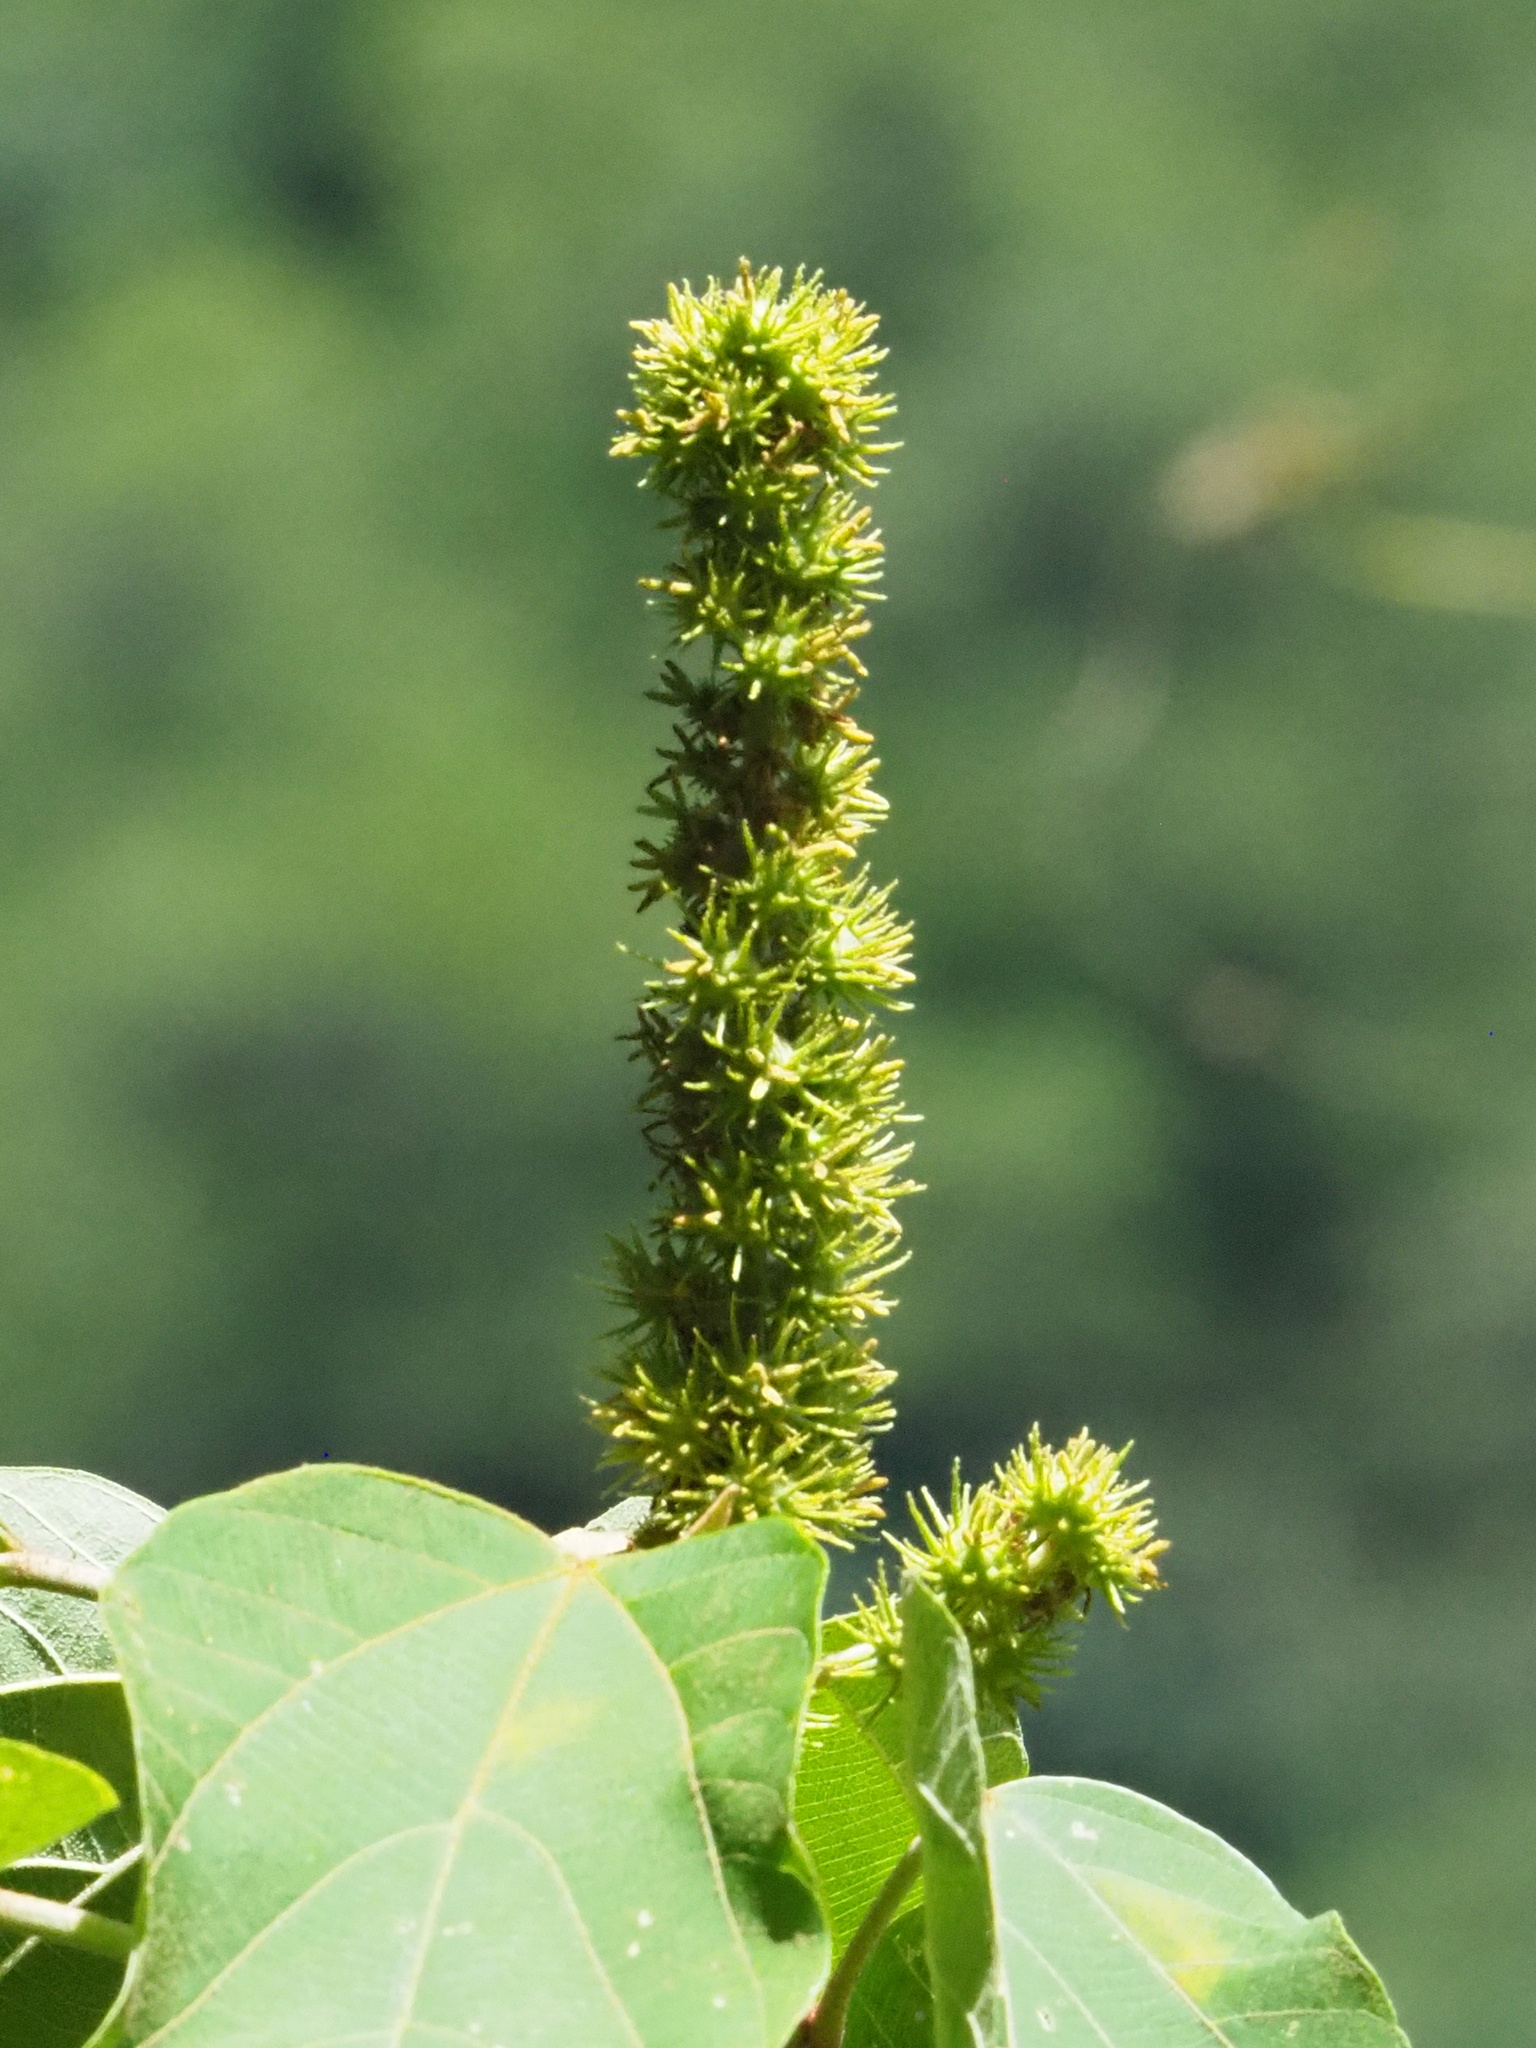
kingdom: Plantae
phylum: Tracheophyta
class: Magnoliopsida
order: Malpighiales
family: Euphorbiaceae
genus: Mallotus
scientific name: Mallotus japonicus
